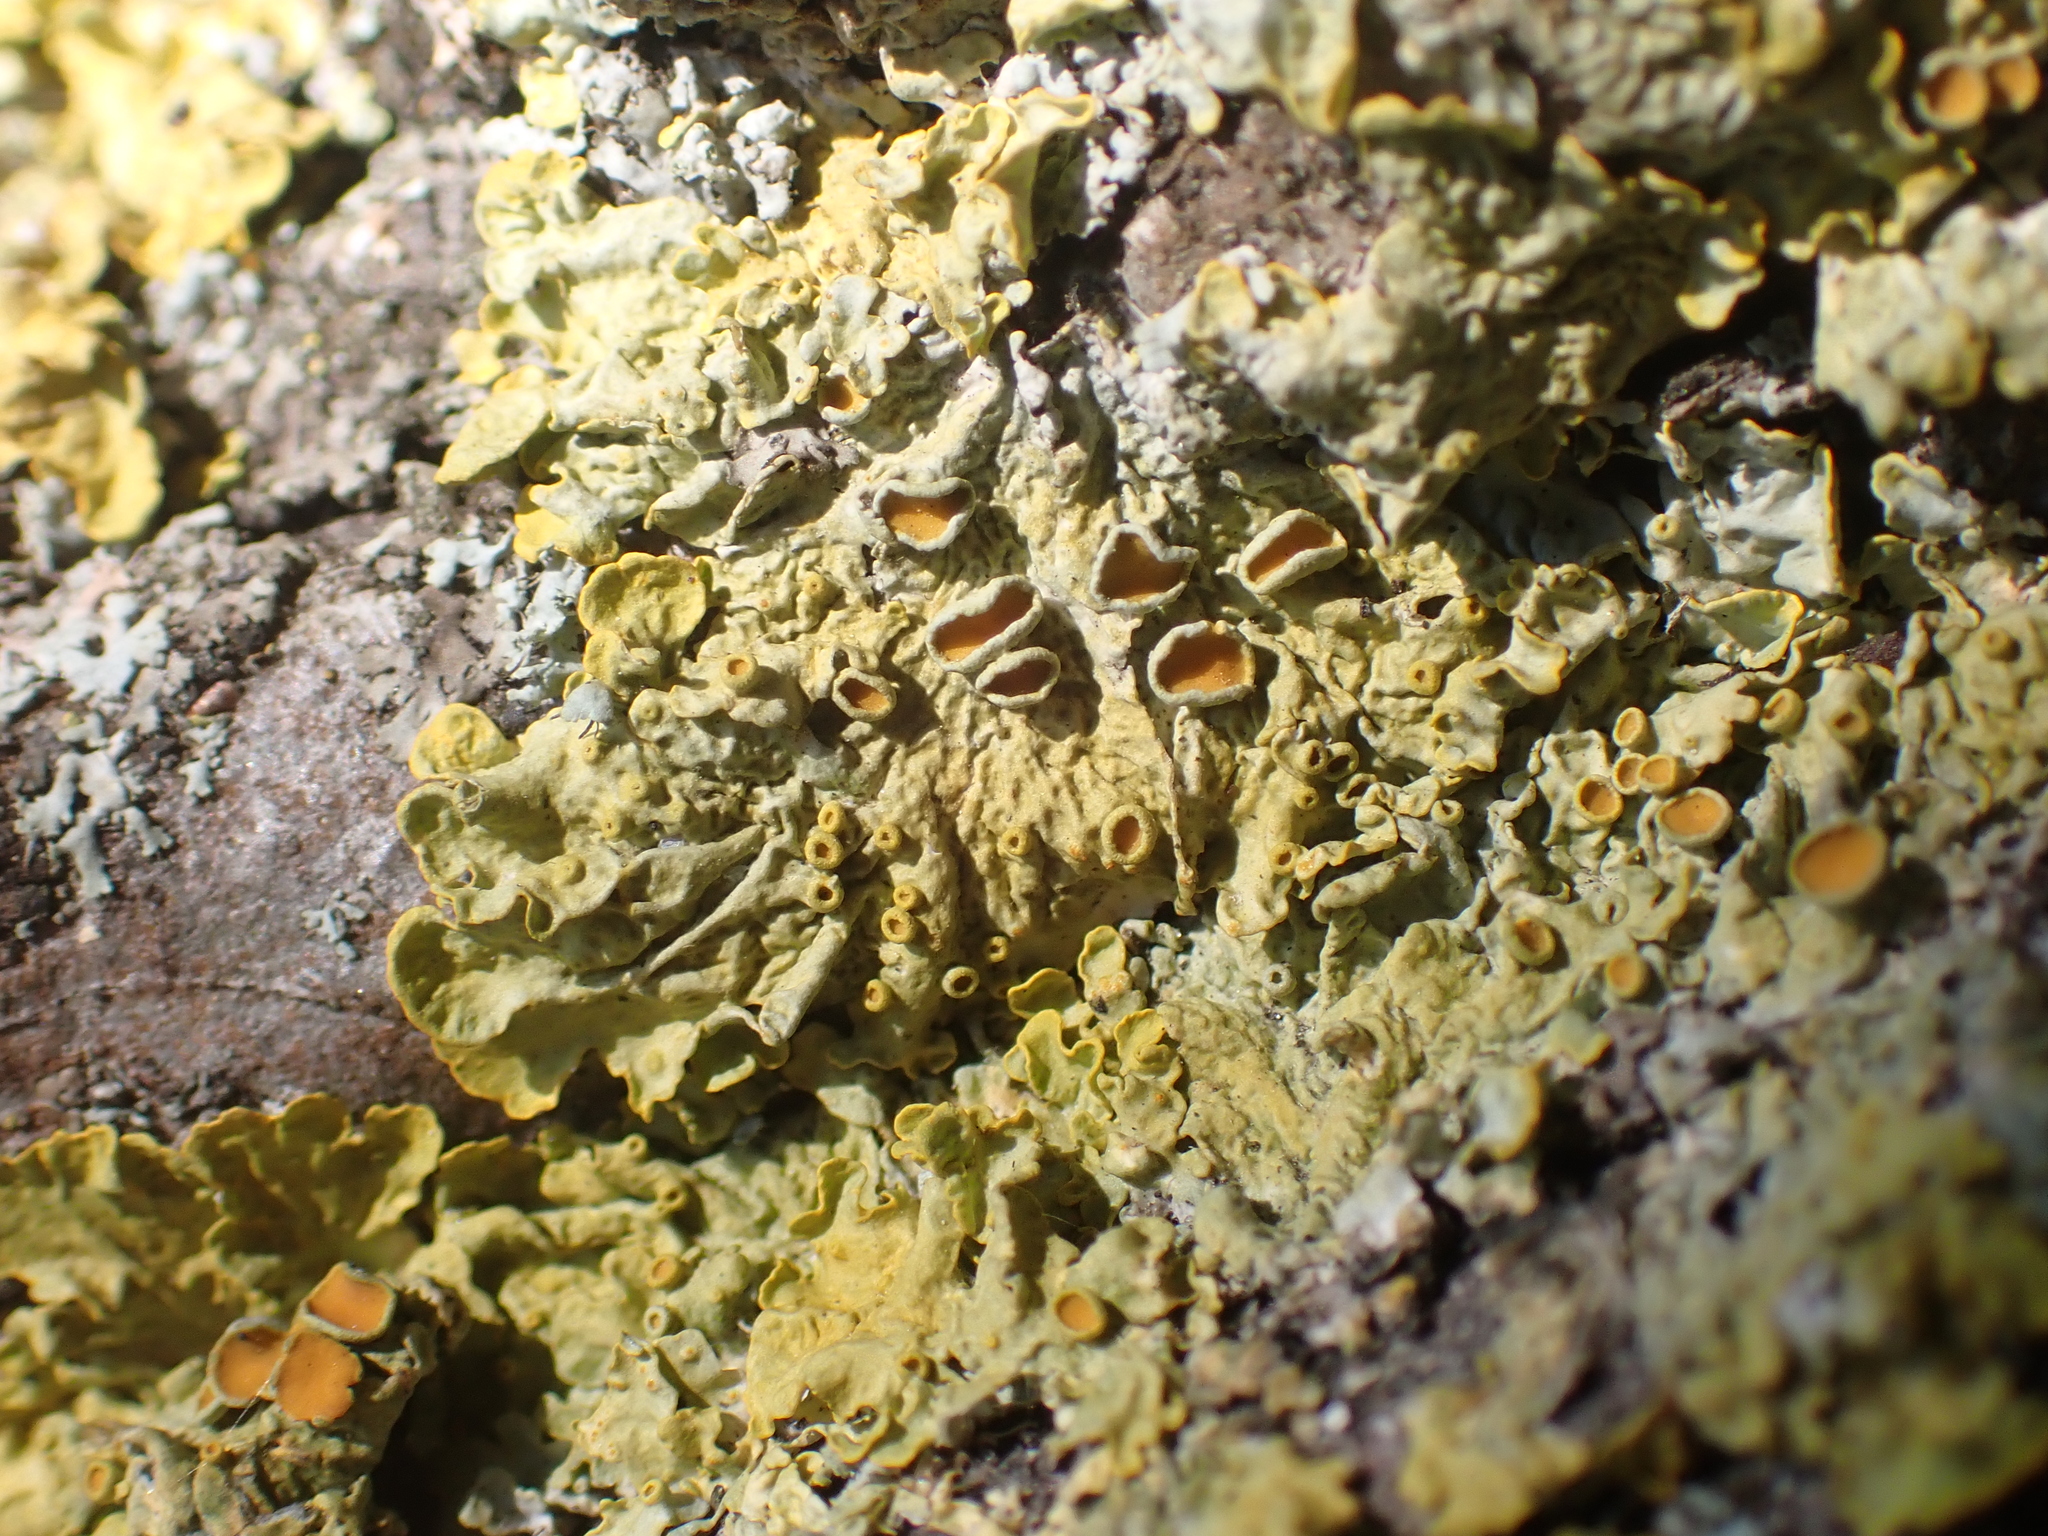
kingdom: Fungi
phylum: Ascomycota
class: Lecanoromycetes
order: Teloschistales
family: Teloschistaceae
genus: Xanthoria
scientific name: Xanthoria parietina
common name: Common orange lichen
